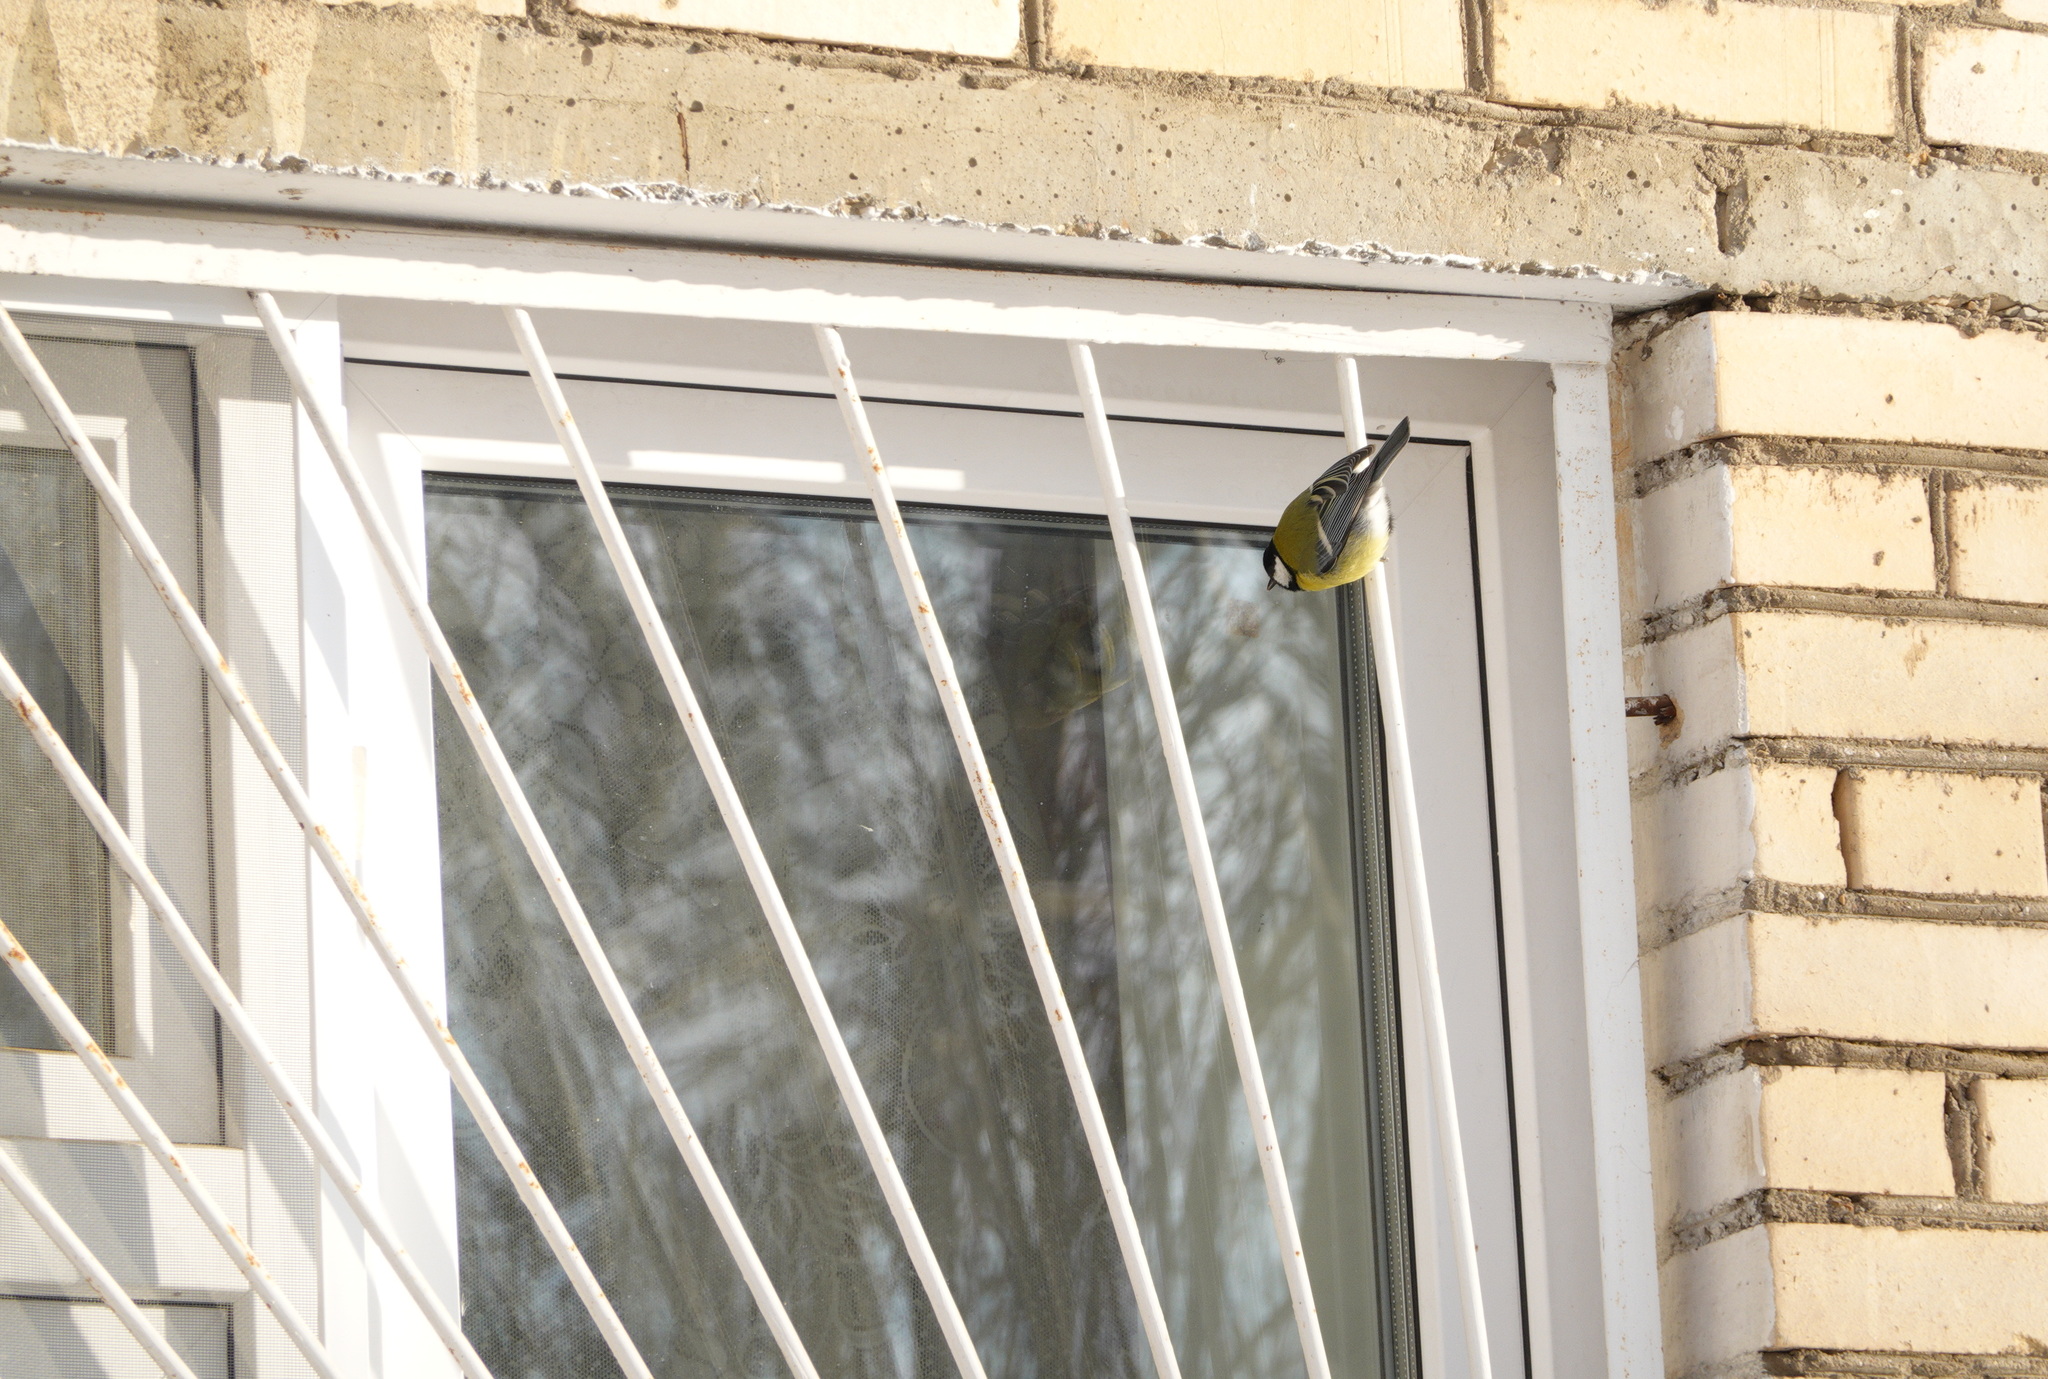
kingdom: Animalia
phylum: Chordata
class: Aves
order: Passeriformes
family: Paridae
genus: Parus
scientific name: Parus major
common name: Great tit
